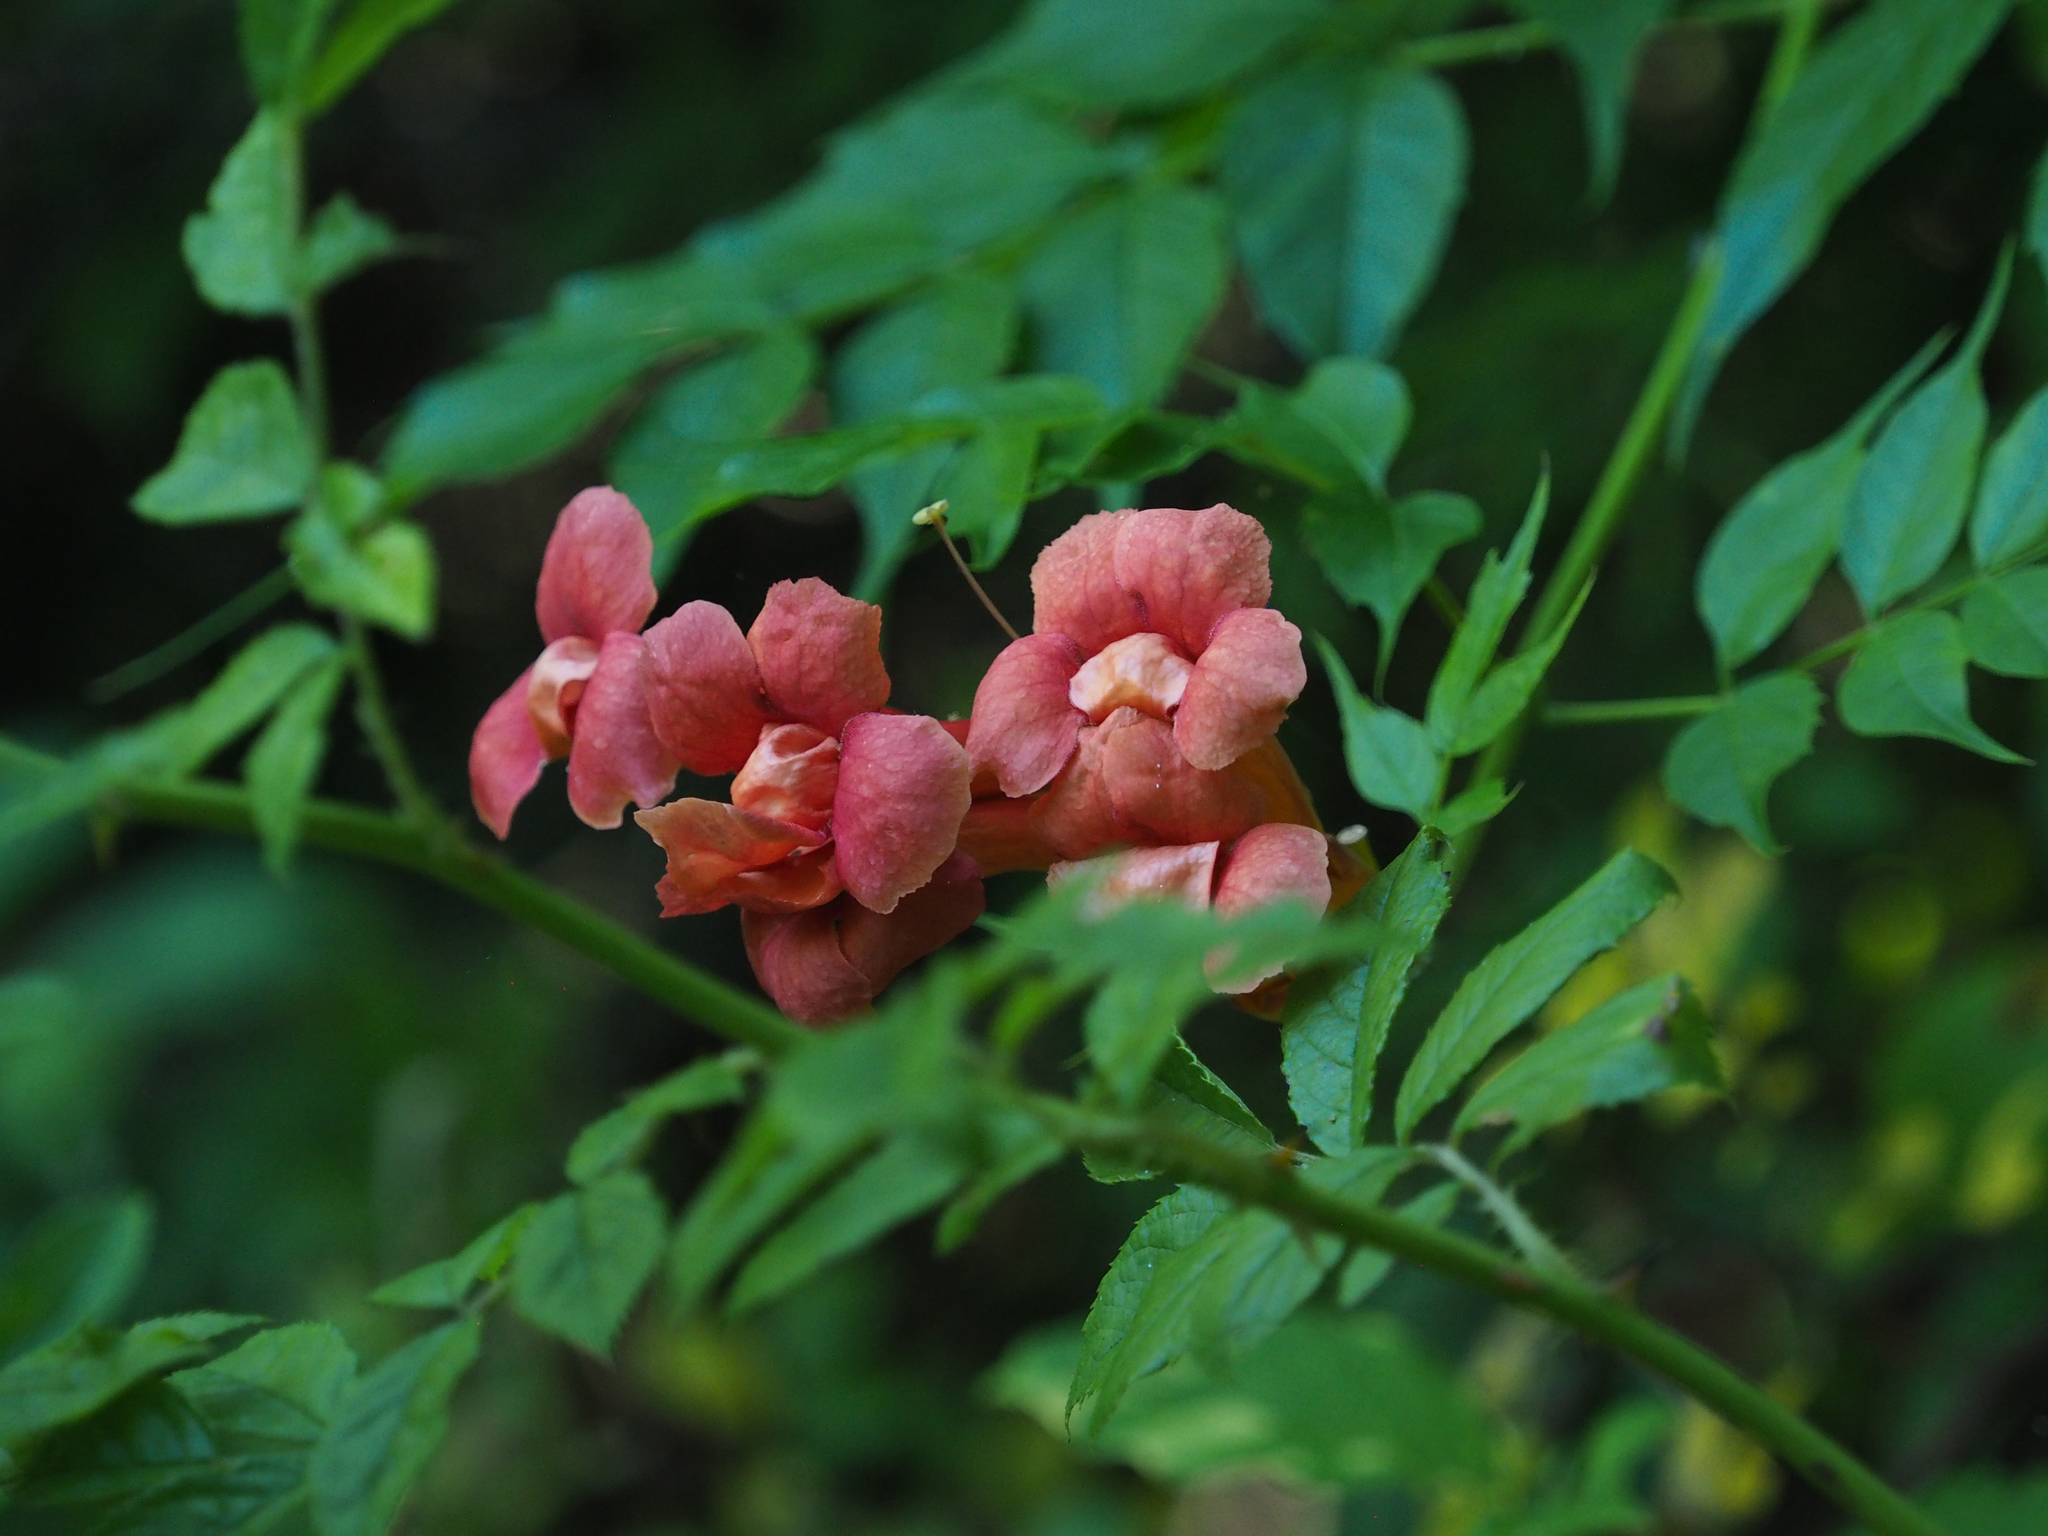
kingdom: Plantae
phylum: Tracheophyta
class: Magnoliopsida
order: Lamiales
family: Bignoniaceae
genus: Campsis
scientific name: Campsis radicans
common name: Trumpet-creeper
